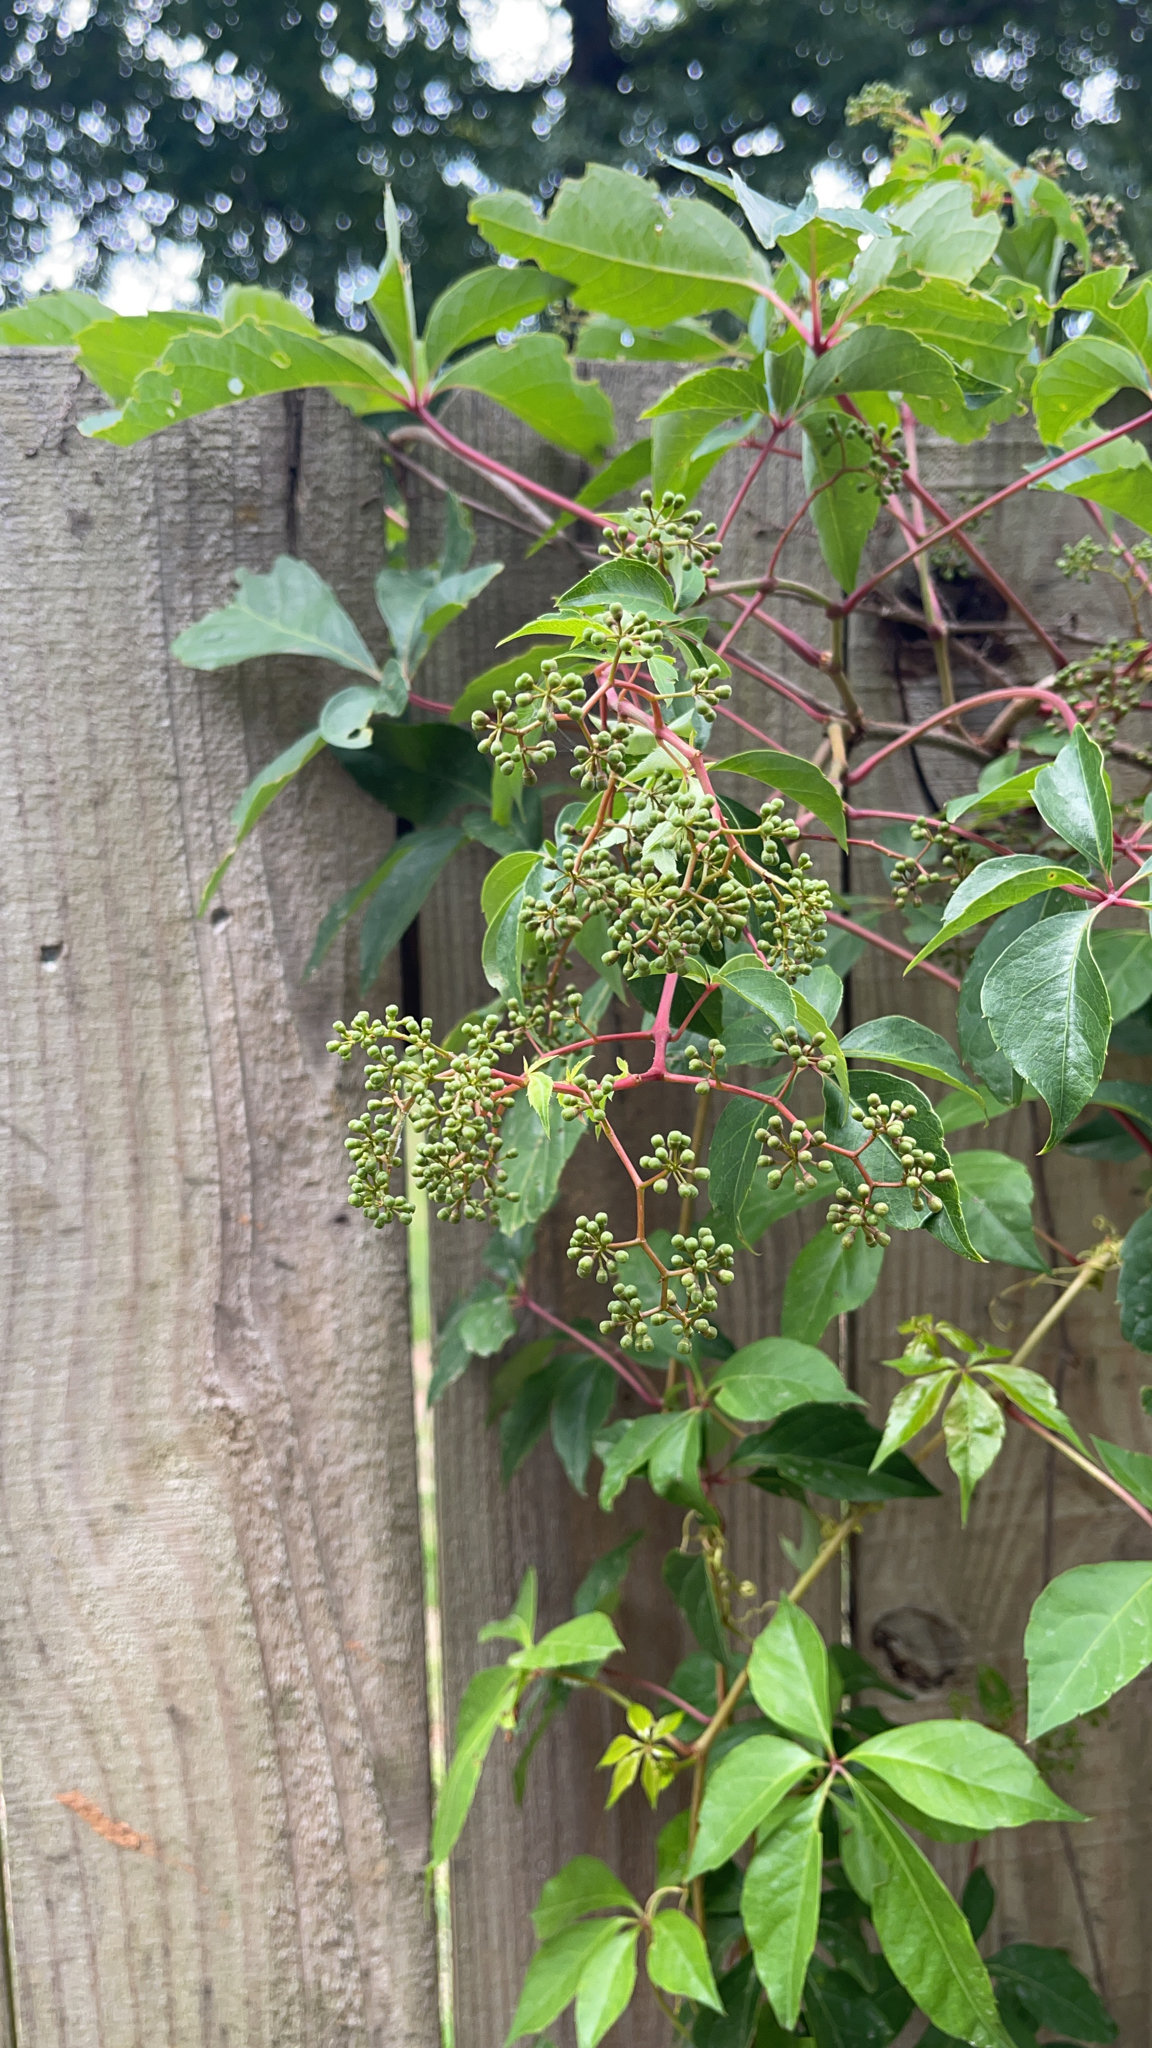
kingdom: Plantae
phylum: Tracheophyta
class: Magnoliopsida
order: Vitales
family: Vitaceae
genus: Parthenocissus
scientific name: Parthenocissus quinquefolia
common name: Virginia-creeper
